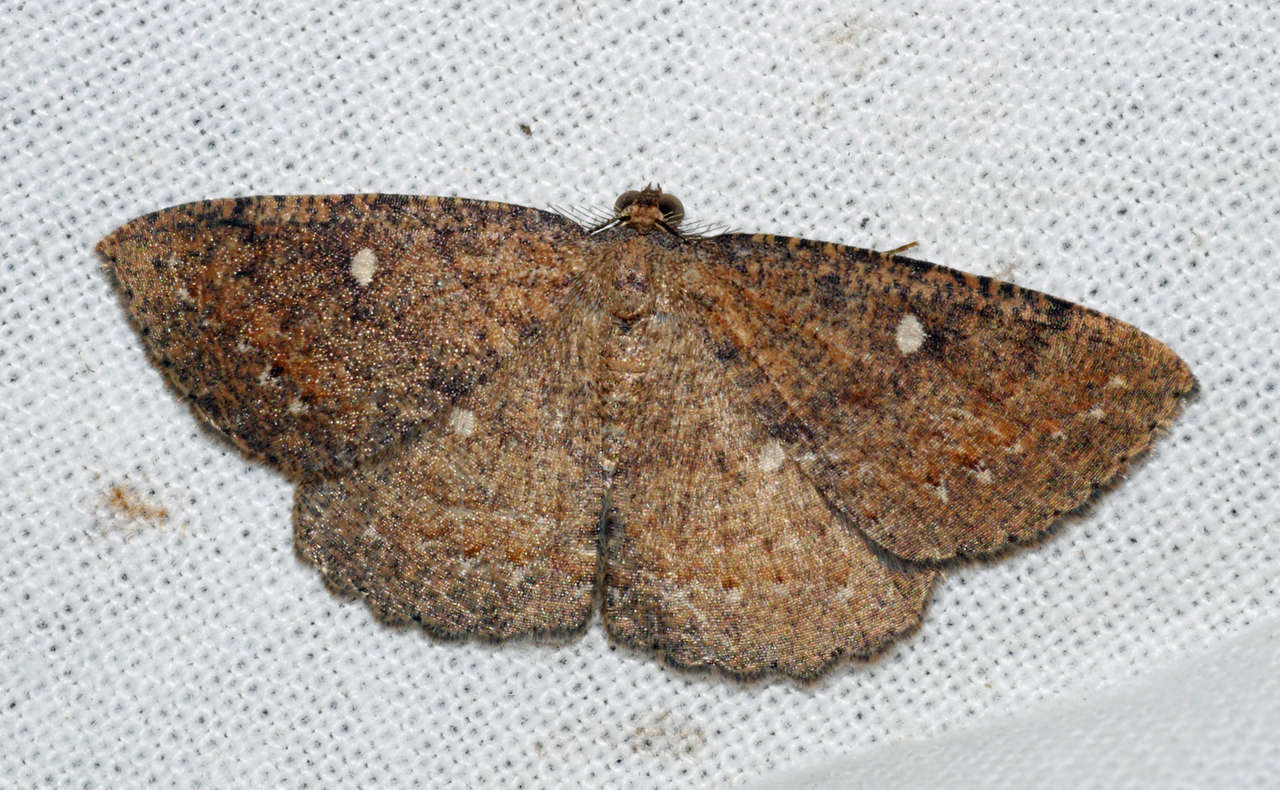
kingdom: Animalia
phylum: Arthropoda
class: Insecta
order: Lepidoptera
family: Geometridae
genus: Casbia
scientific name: Casbia melanops
